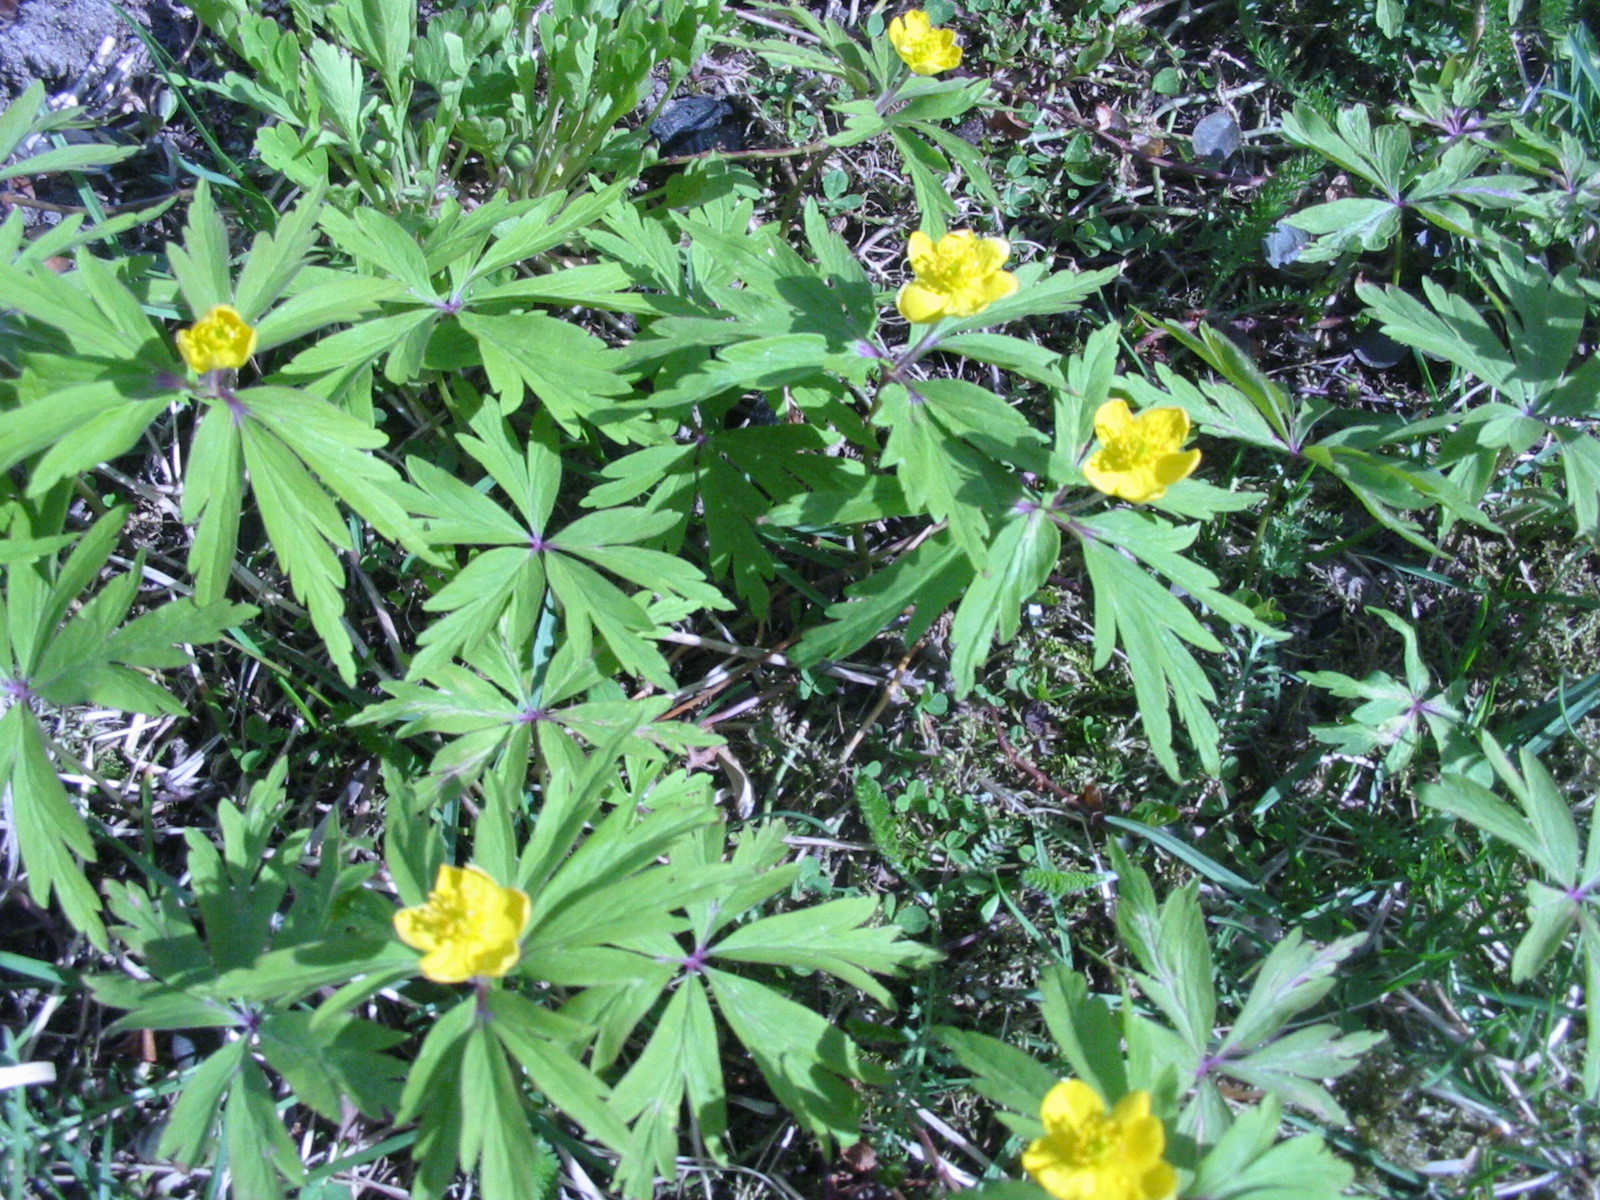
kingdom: Plantae
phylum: Tracheophyta
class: Magnoliopsida
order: Ranunculales
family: Ranunculaceae
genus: Anemone
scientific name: Anemone ranunculoides
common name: Yellow anemone
